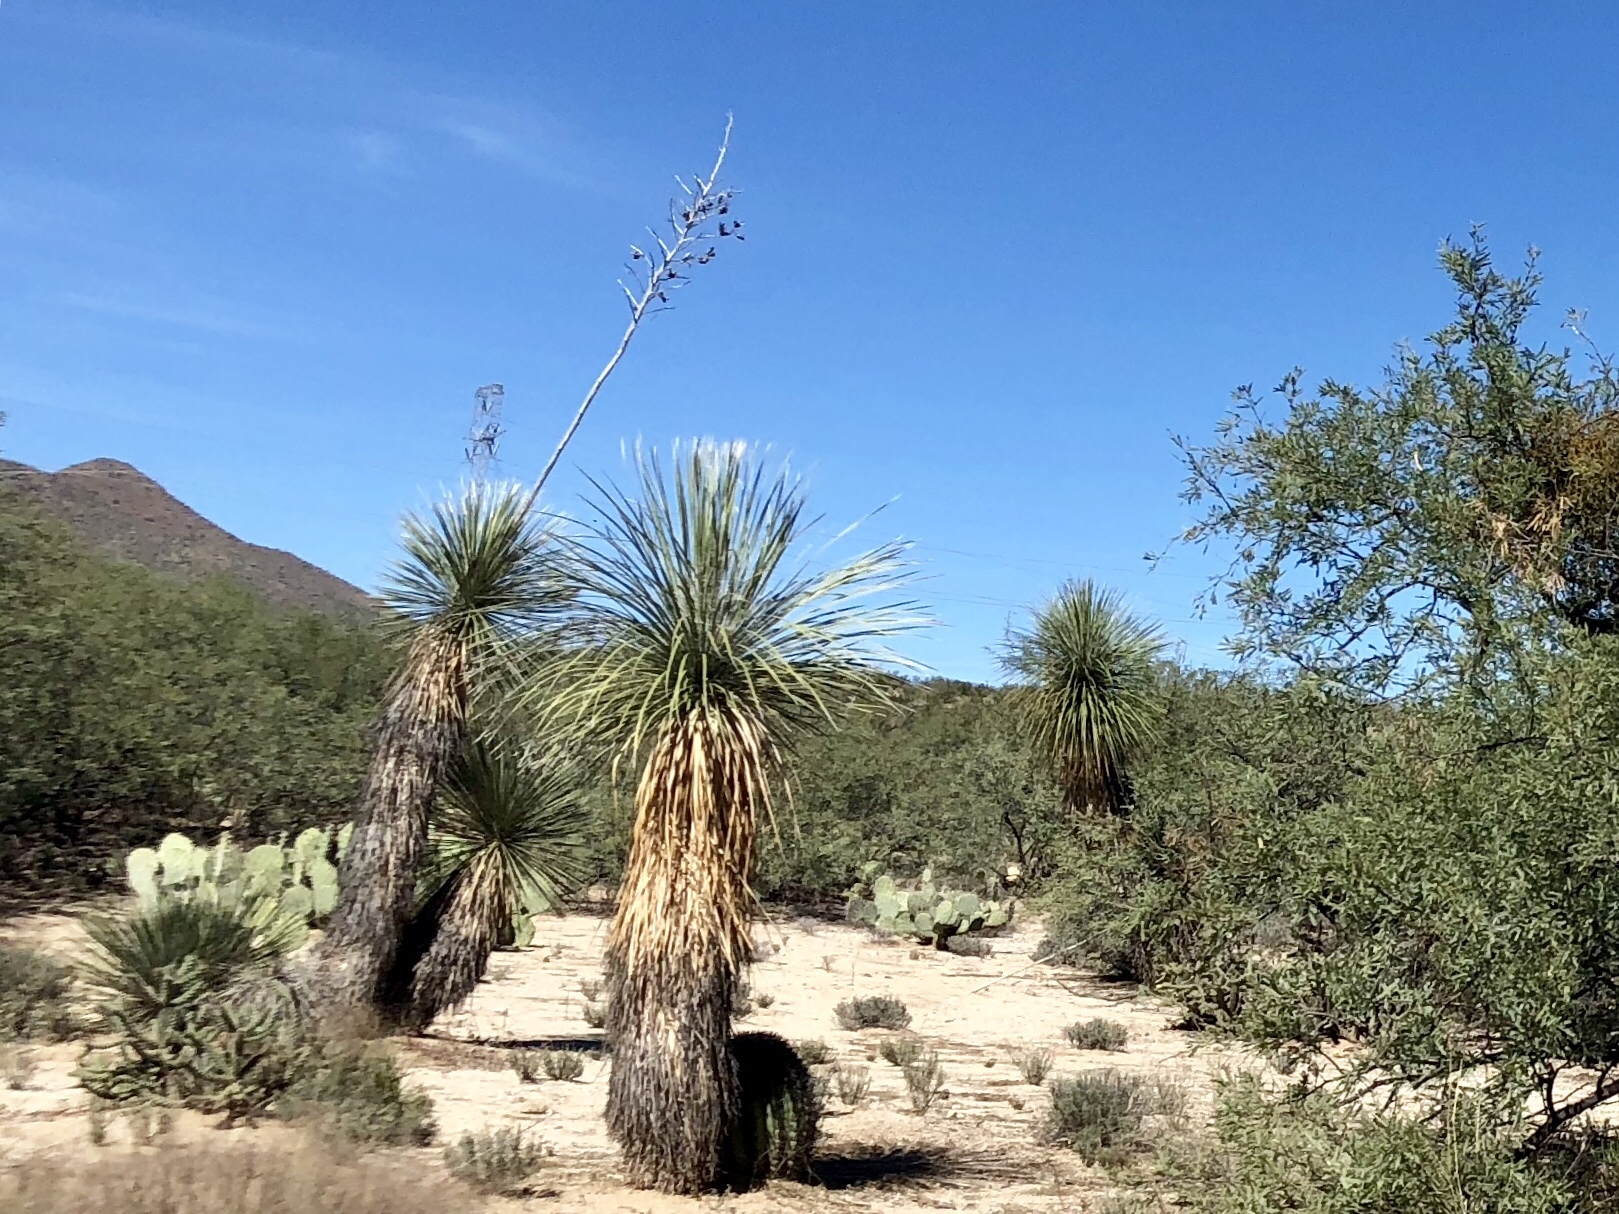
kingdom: Plantae
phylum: Tracheophyta
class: Liliopsida
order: Asparagales
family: Asparagaceae
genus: Yucca
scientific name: Yucca elata
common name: Palmella
